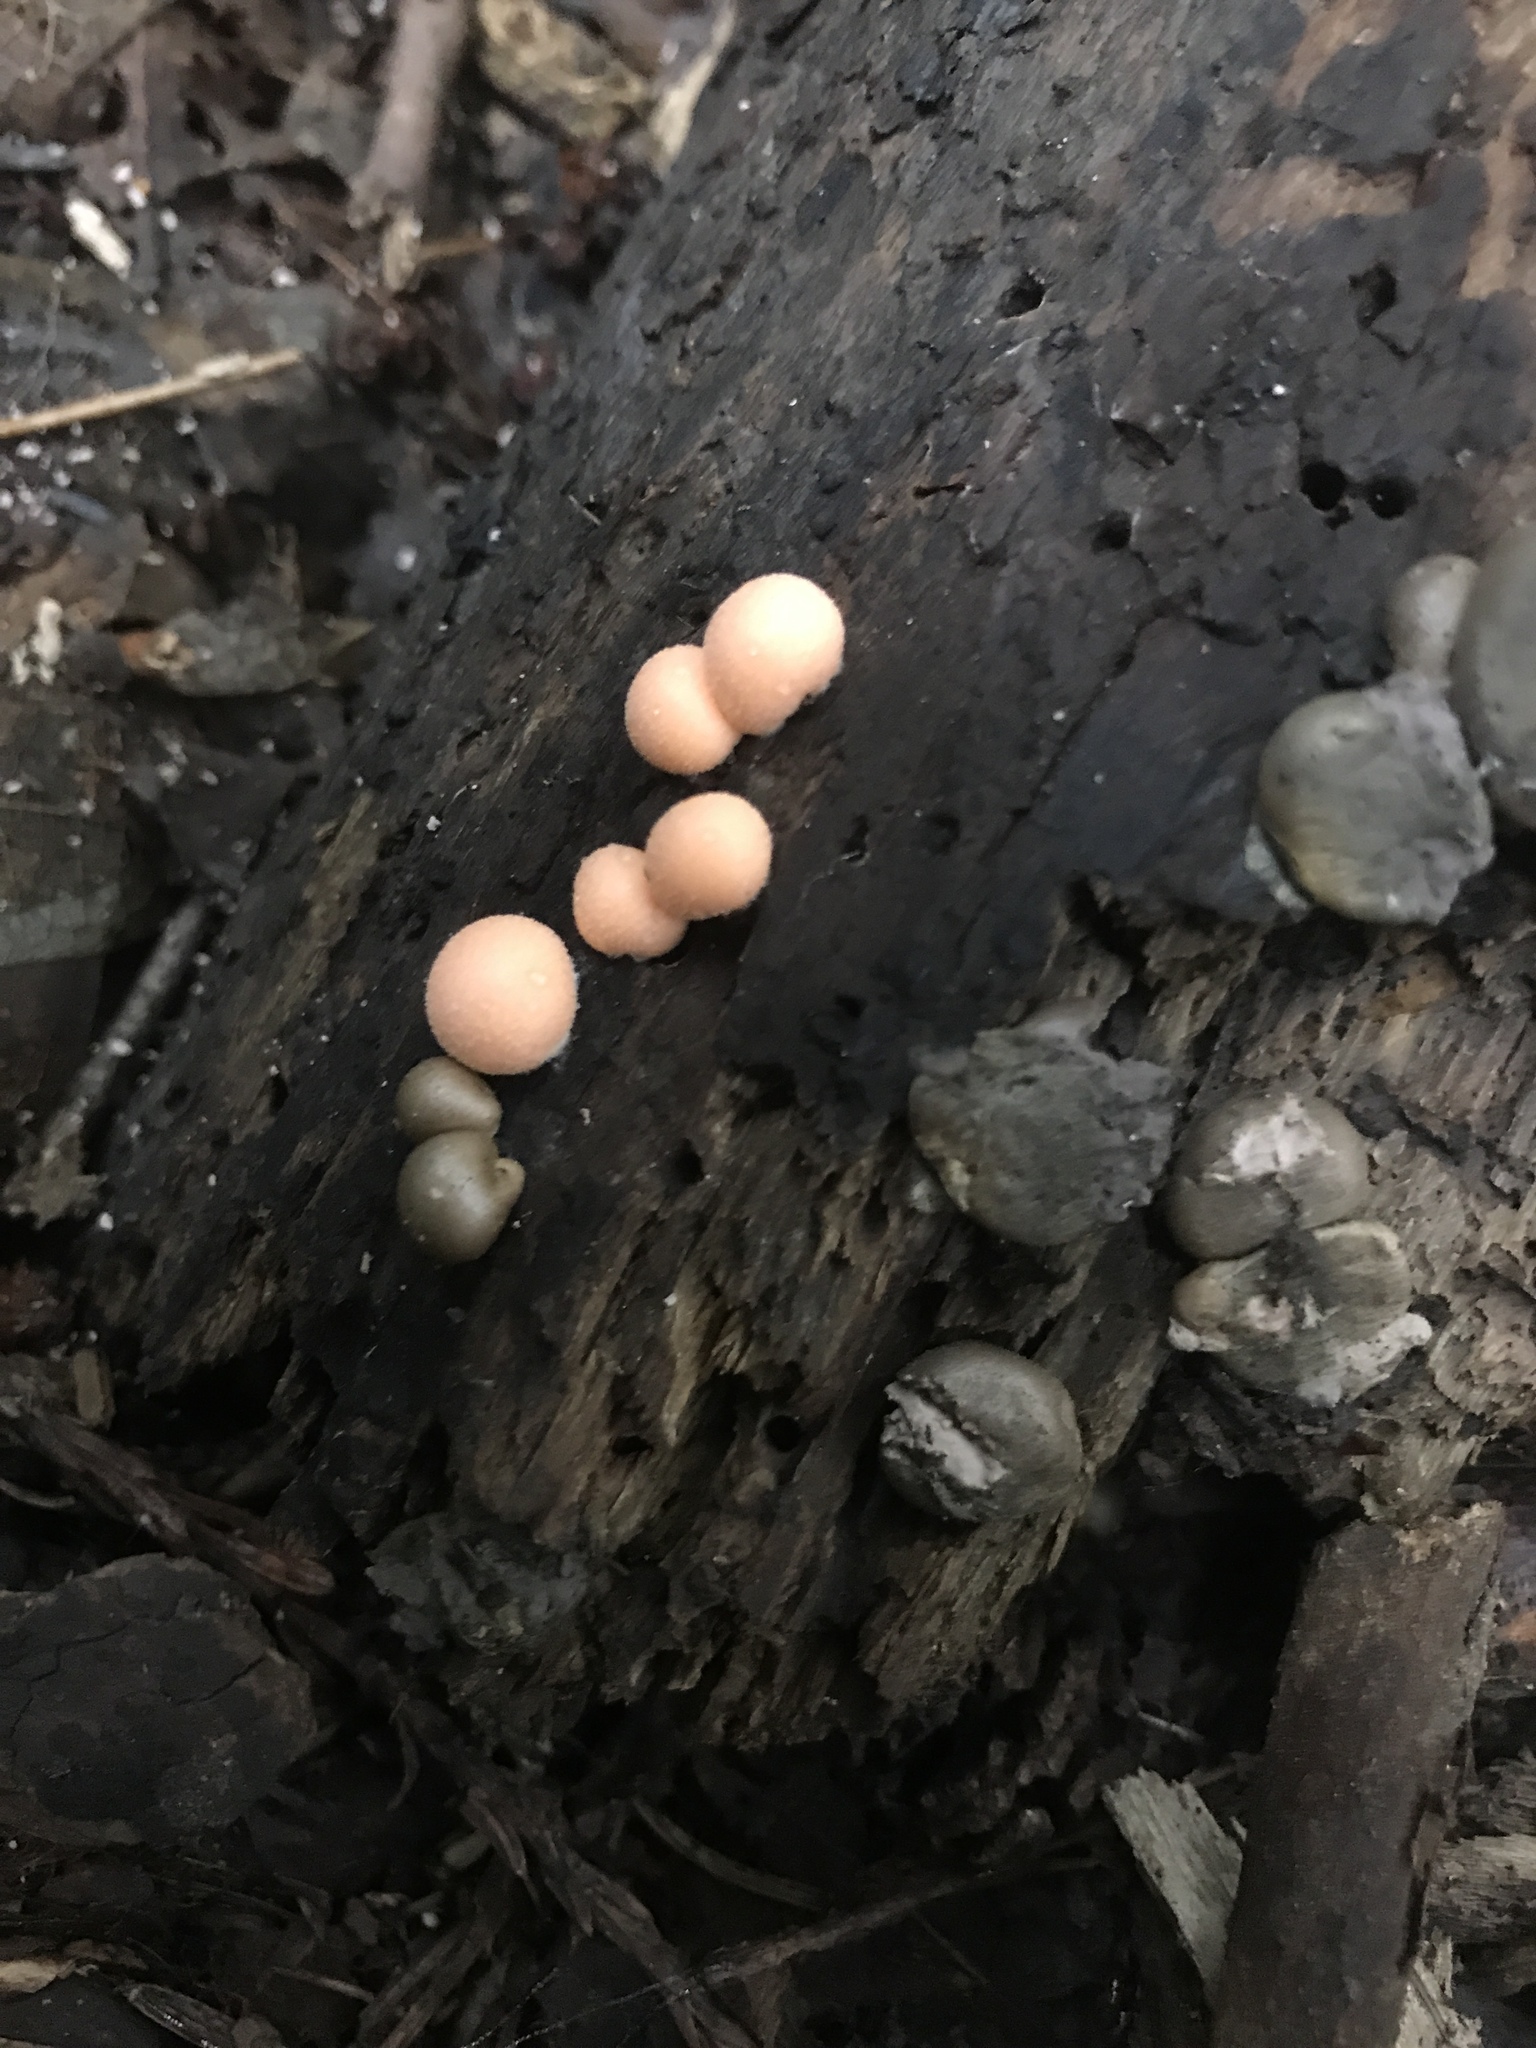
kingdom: Protozoa
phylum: Mycetozoa
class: Myxomycetes
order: Cribrariales
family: Tubiferaceae
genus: Lycogala
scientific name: Lycogala epidendrum
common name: Wolf's milk
